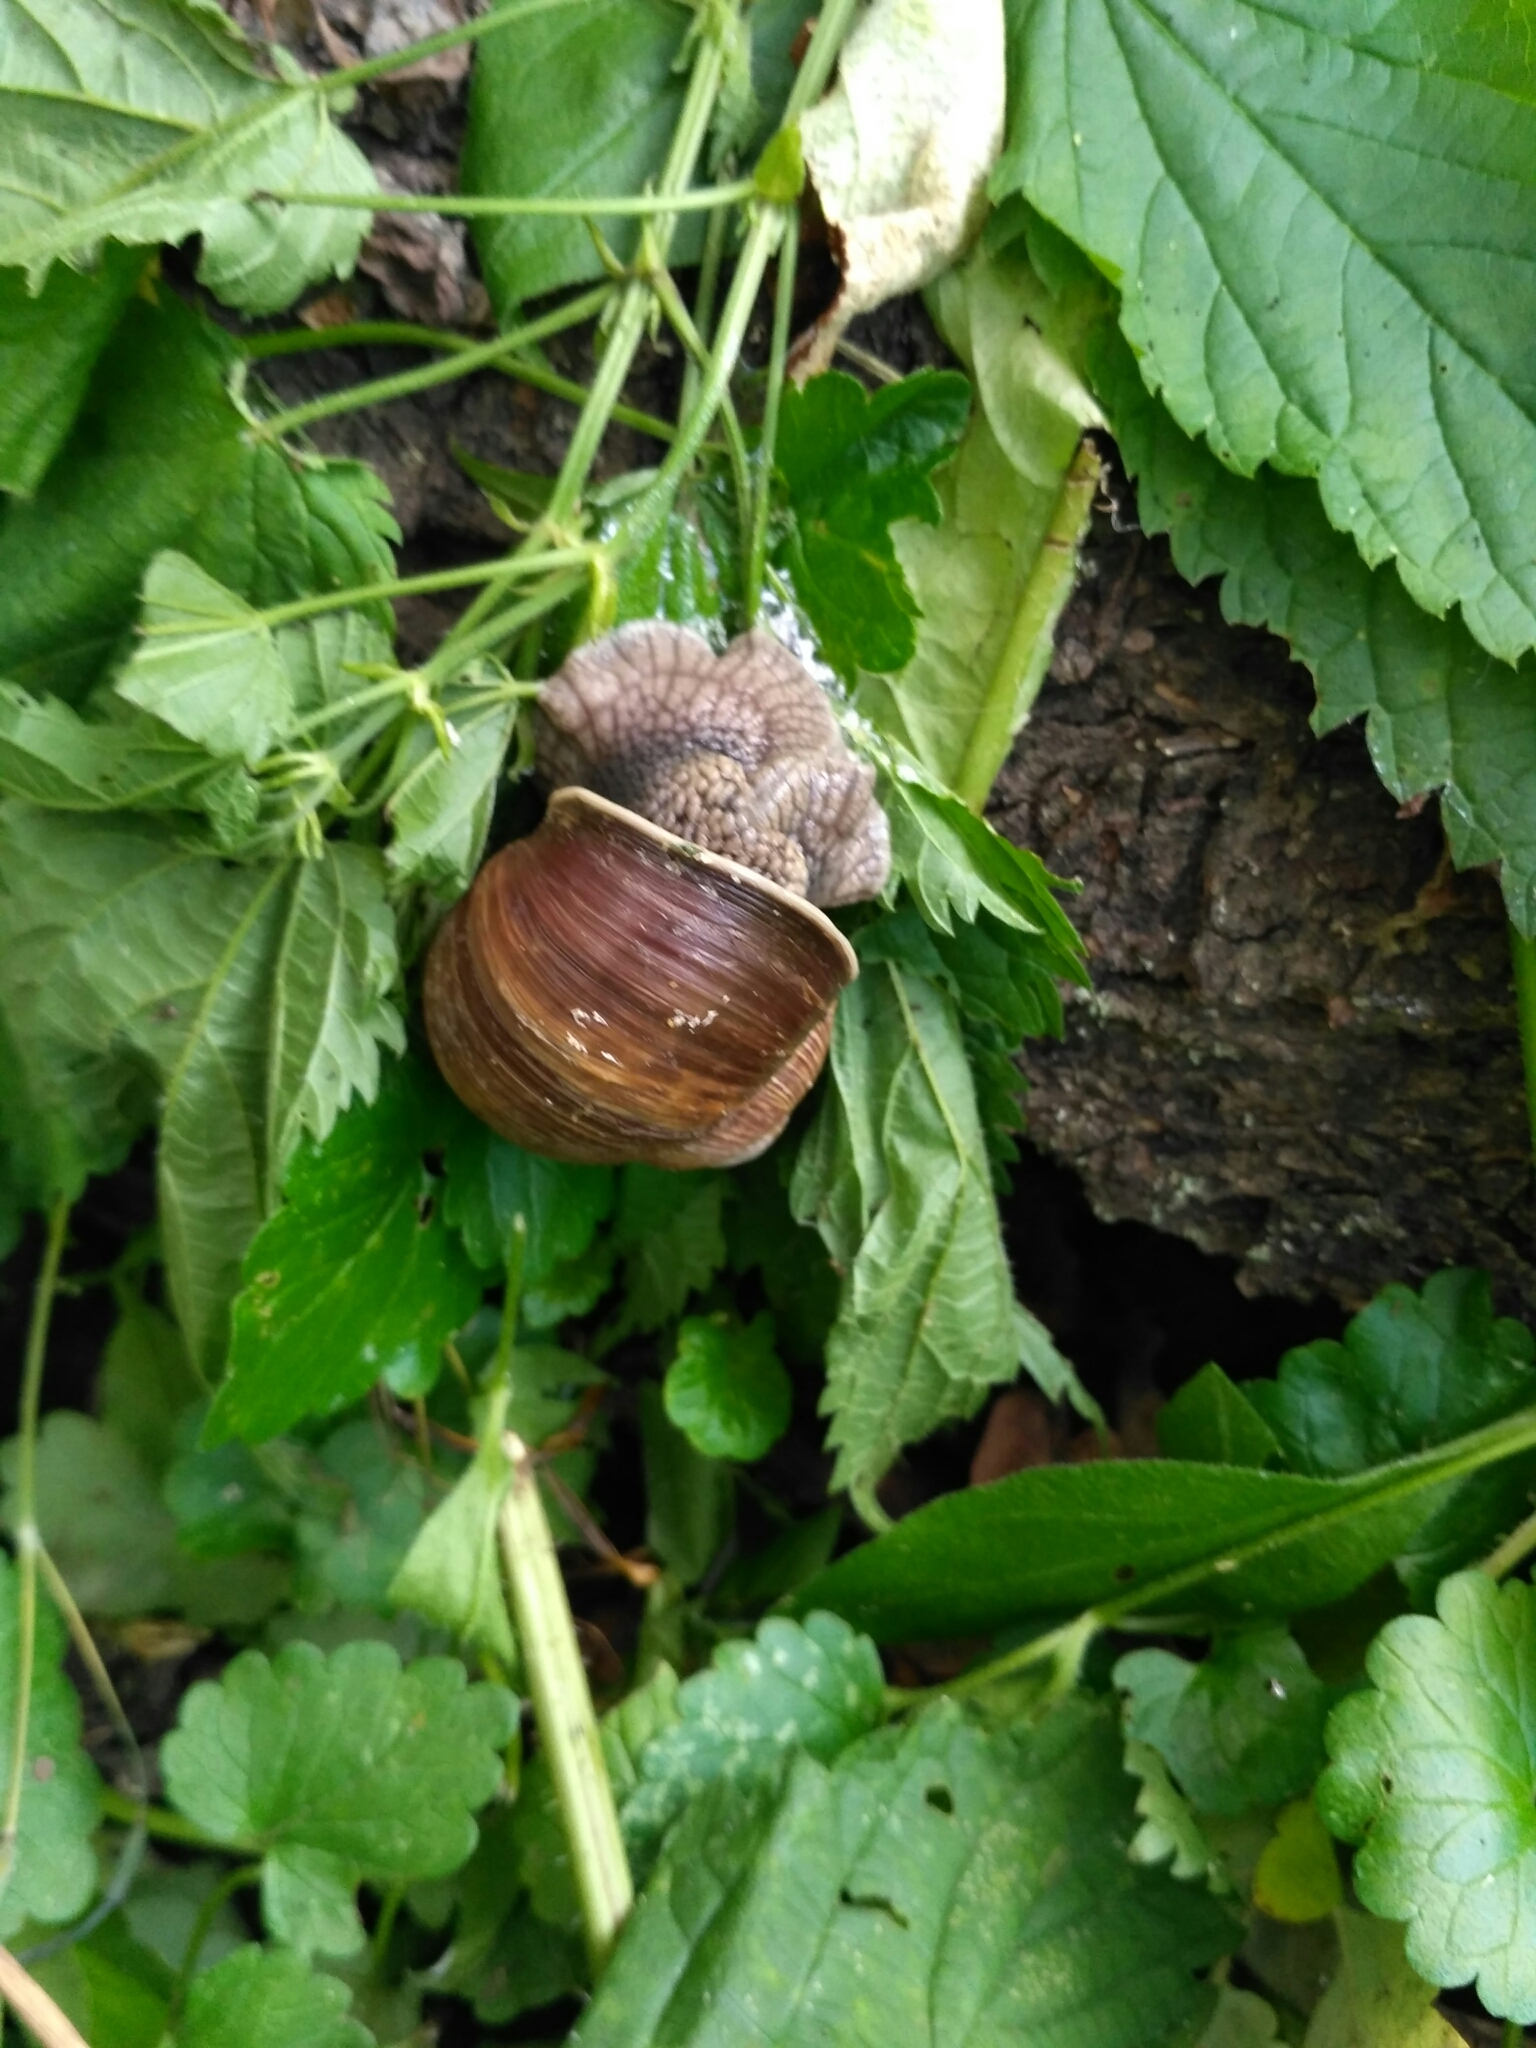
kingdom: Animalia
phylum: Mollusca
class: Gastropoda
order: Stylommatophora
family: Helicidae
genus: Helix
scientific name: Helix pomatia
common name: Roman snail
